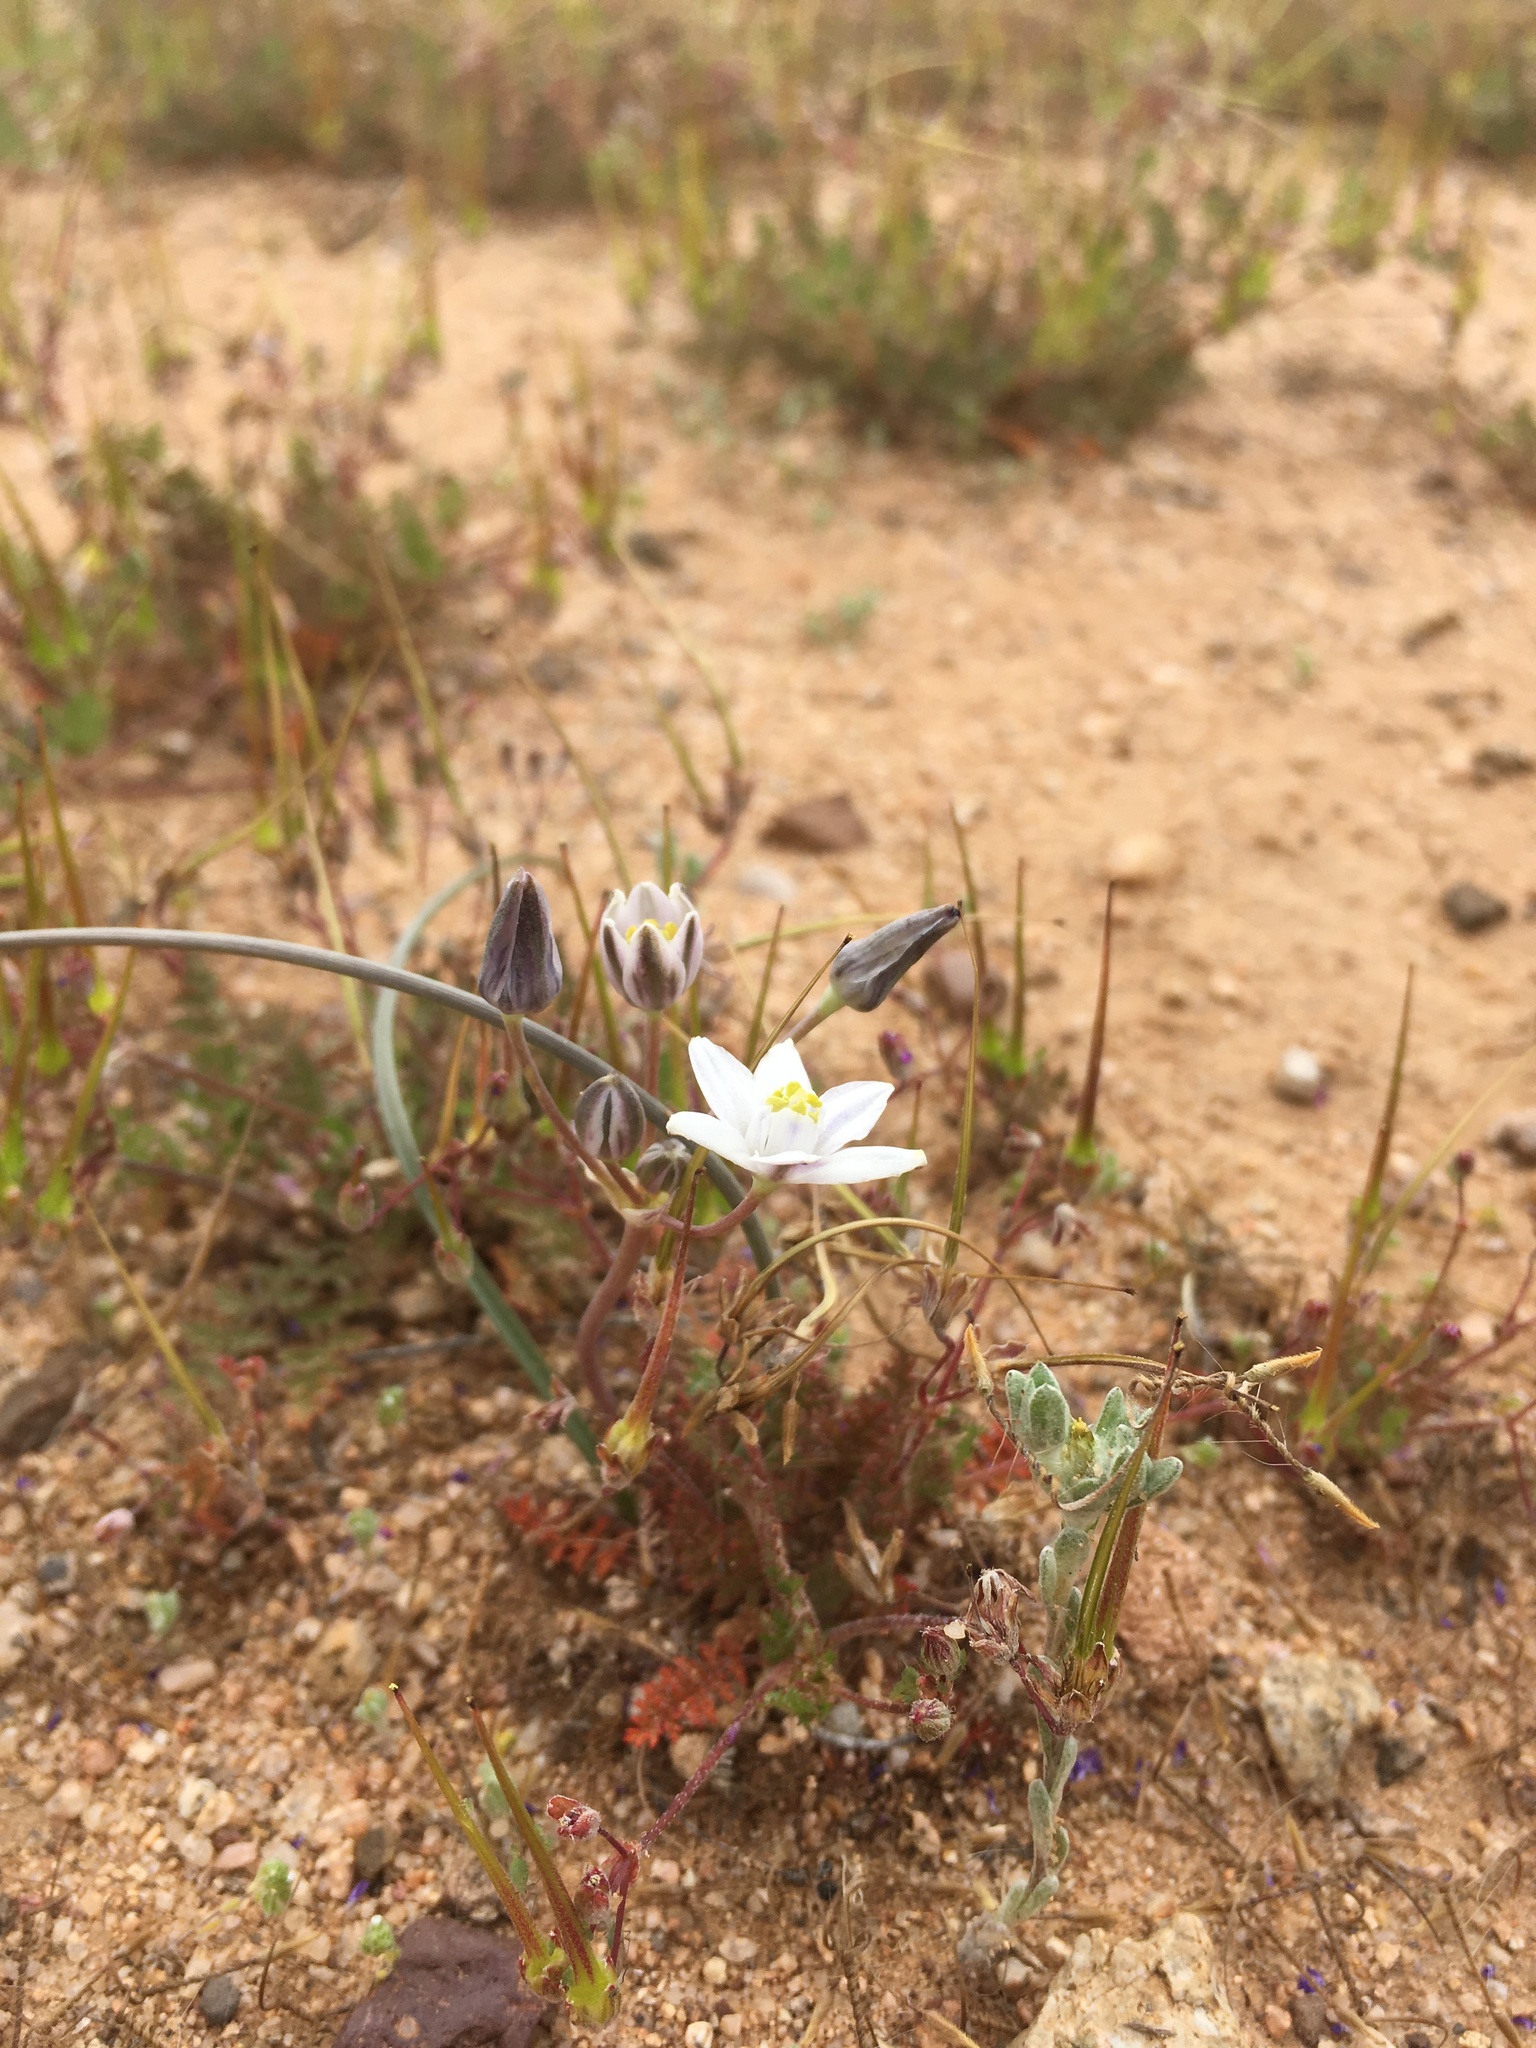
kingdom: Plantae
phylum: Tracheophyta
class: Liliopsida
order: Asparagales
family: Asparagaceae
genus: Muilla
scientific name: Muilla lordsburgana
